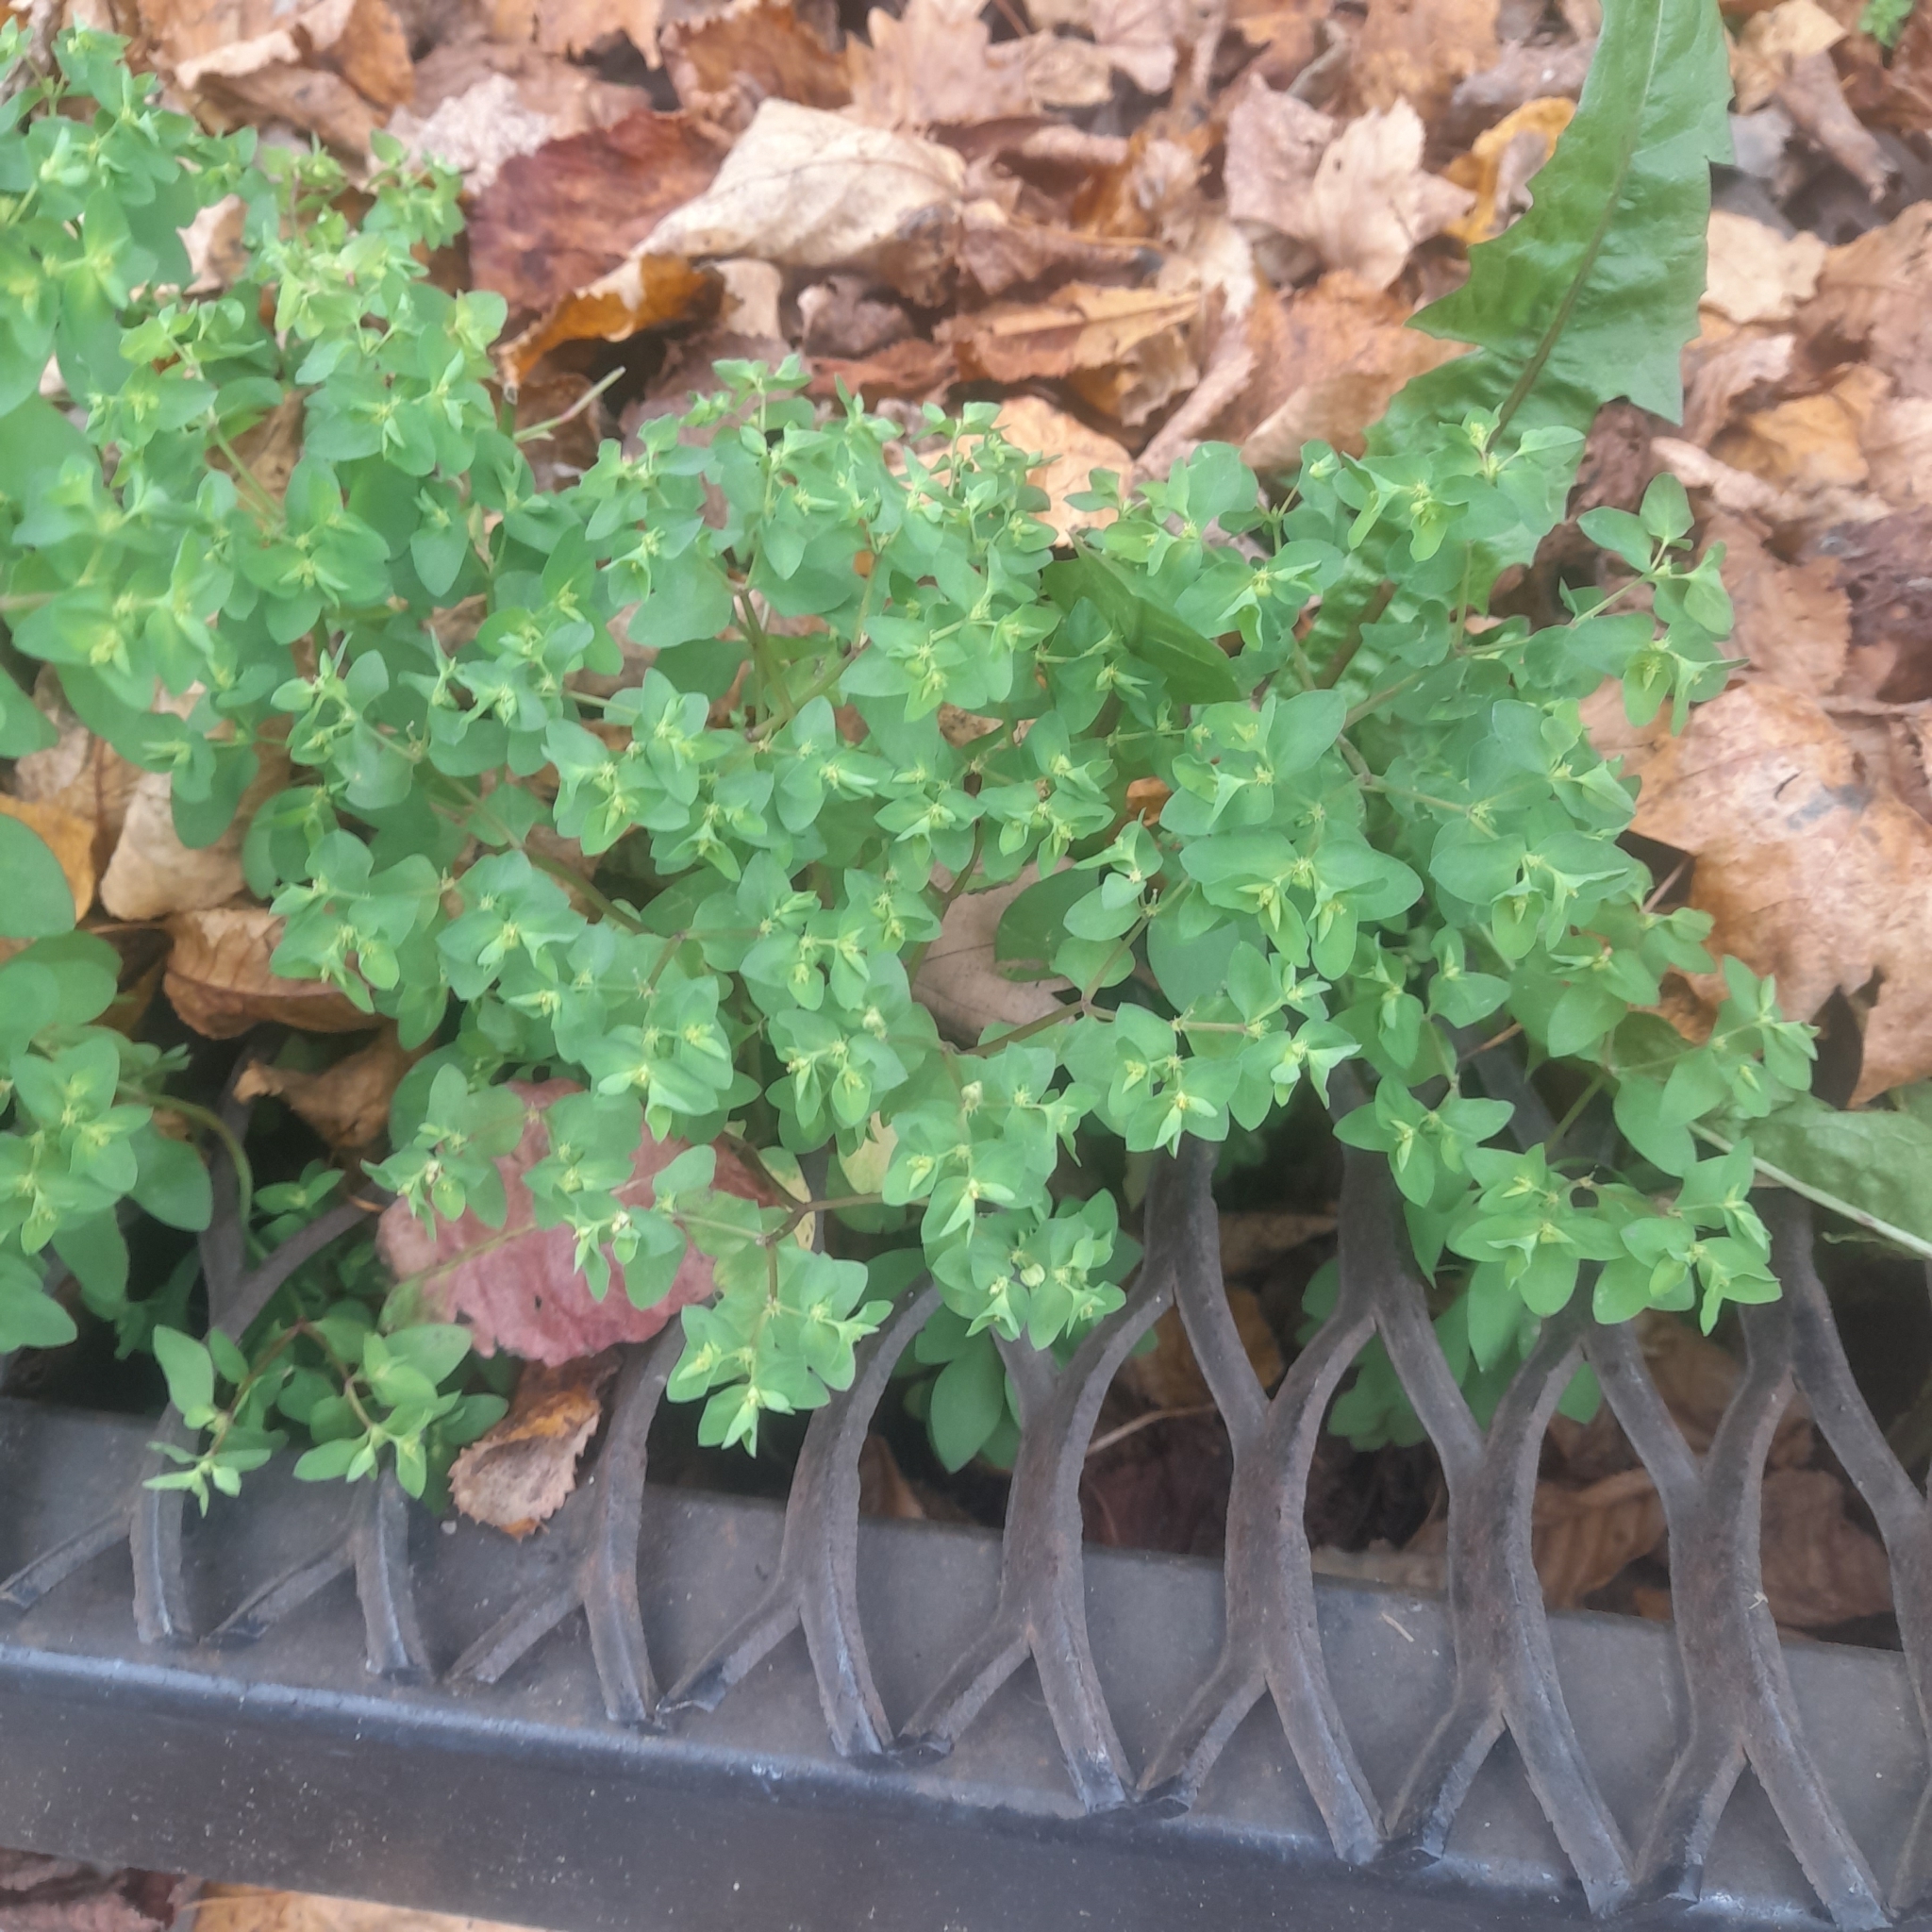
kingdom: Plantae
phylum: Tracheophyta
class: Magnoliopsida
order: Malpighiales
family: Euphorbiaceae
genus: Euphorbia
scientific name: Euphorbia peplus
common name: Petty spurge
